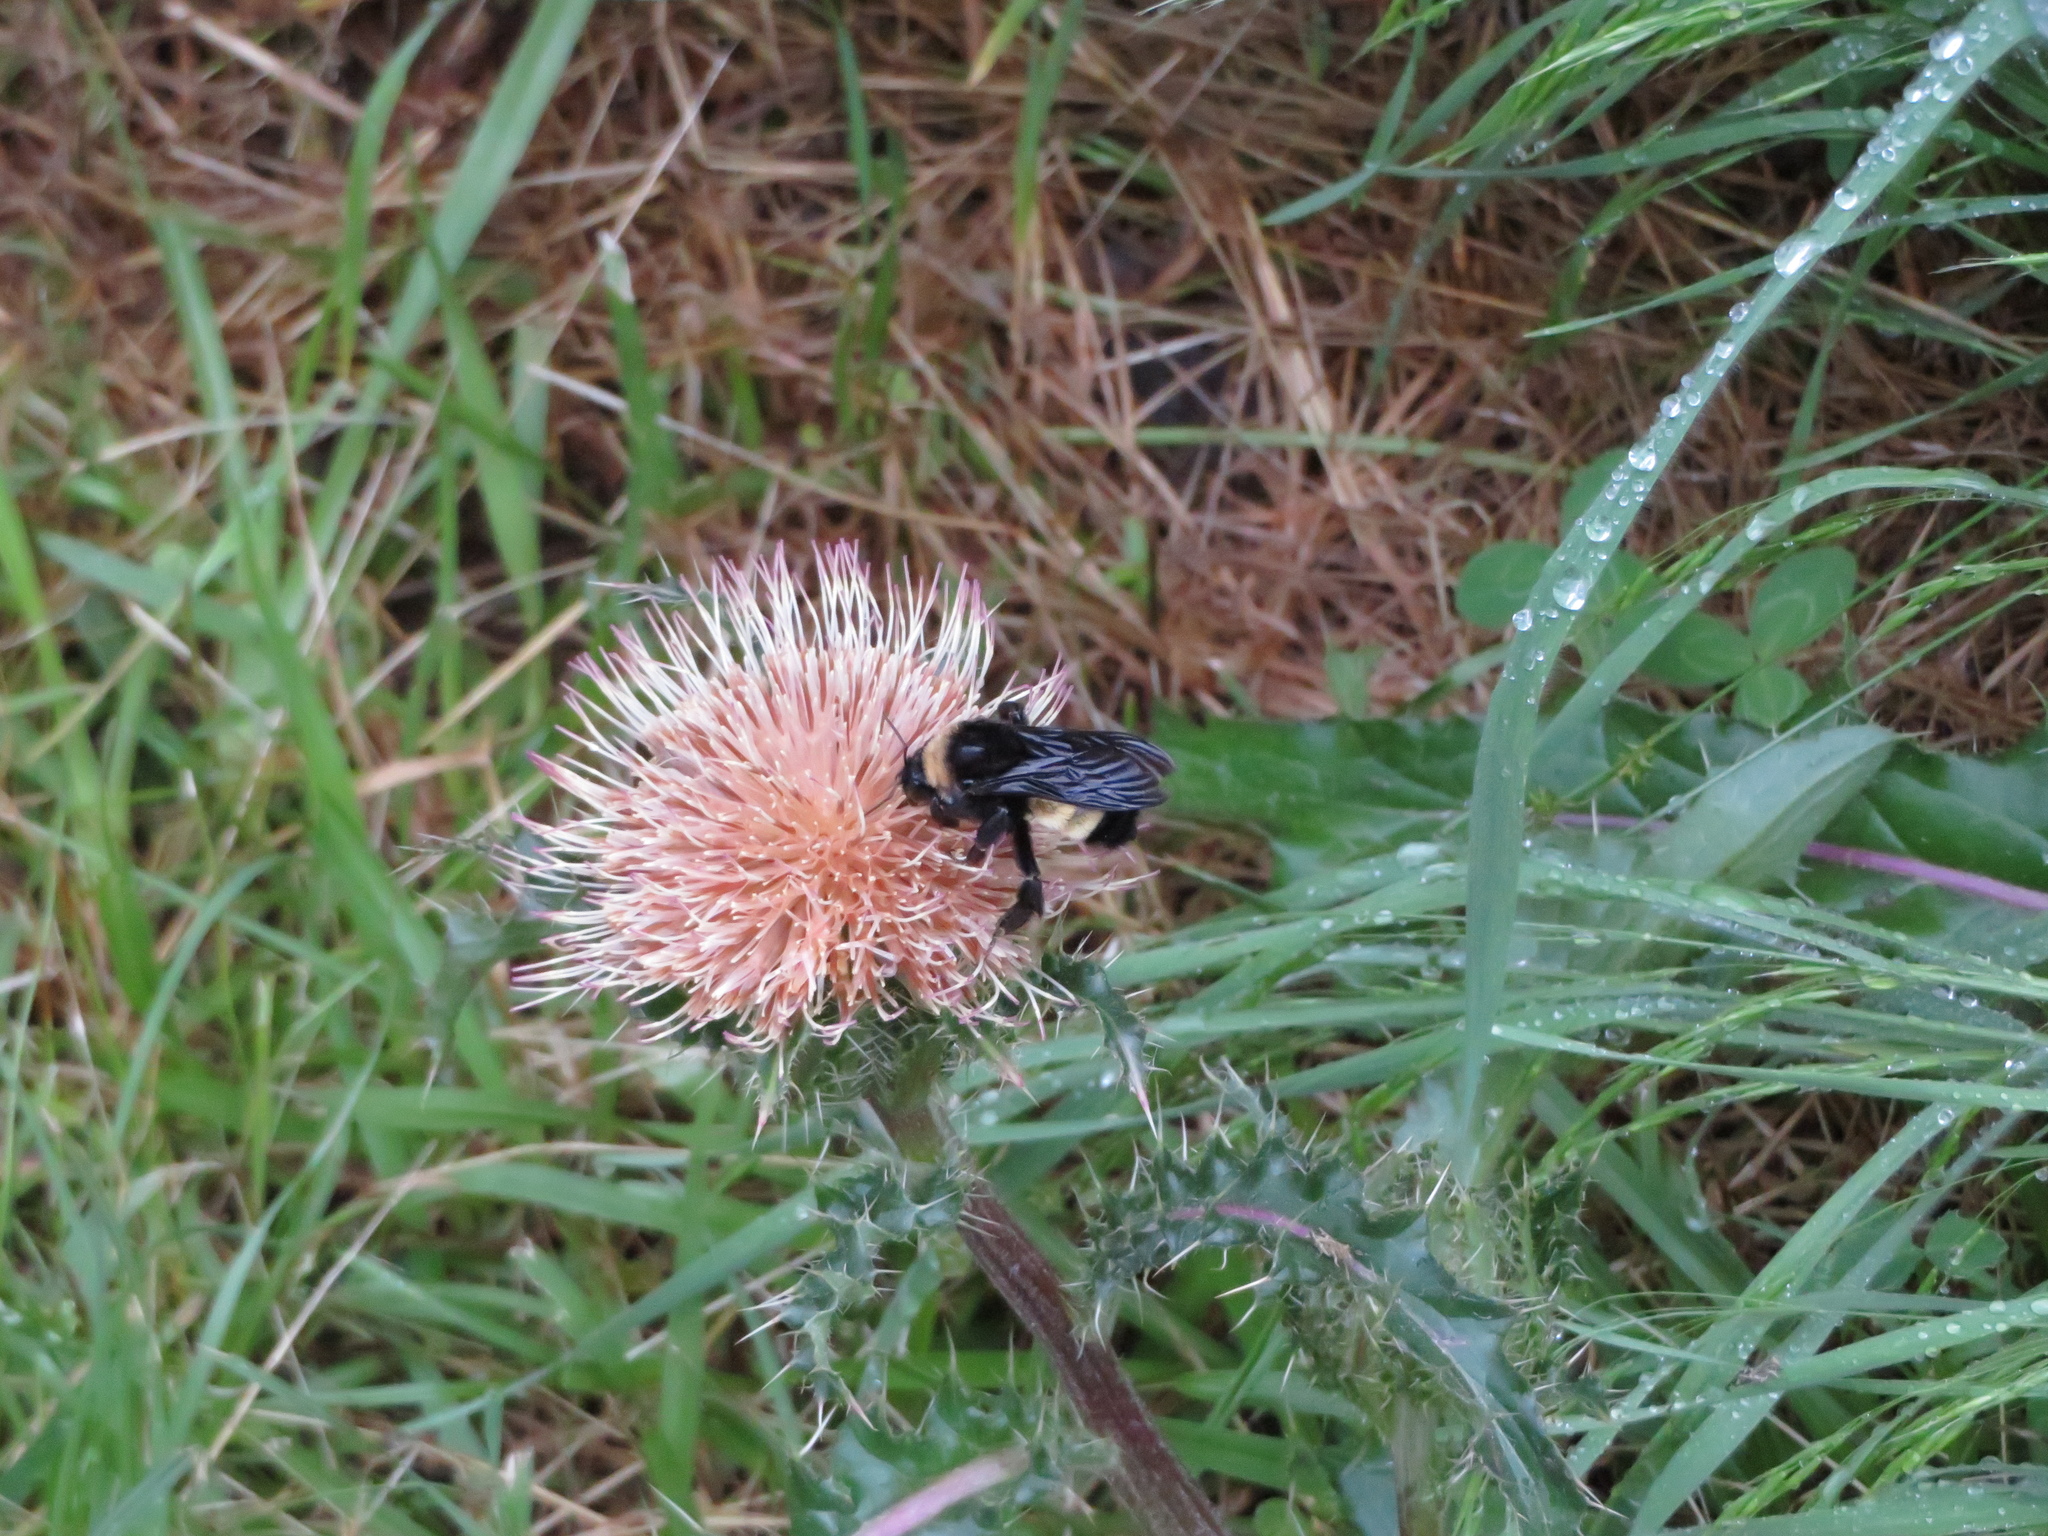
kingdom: Animalia
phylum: Arthropoda
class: Insecta
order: Hymenoptera
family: Apidae
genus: Bombus
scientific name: Bombus pensylvanicus
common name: Bumble bee
